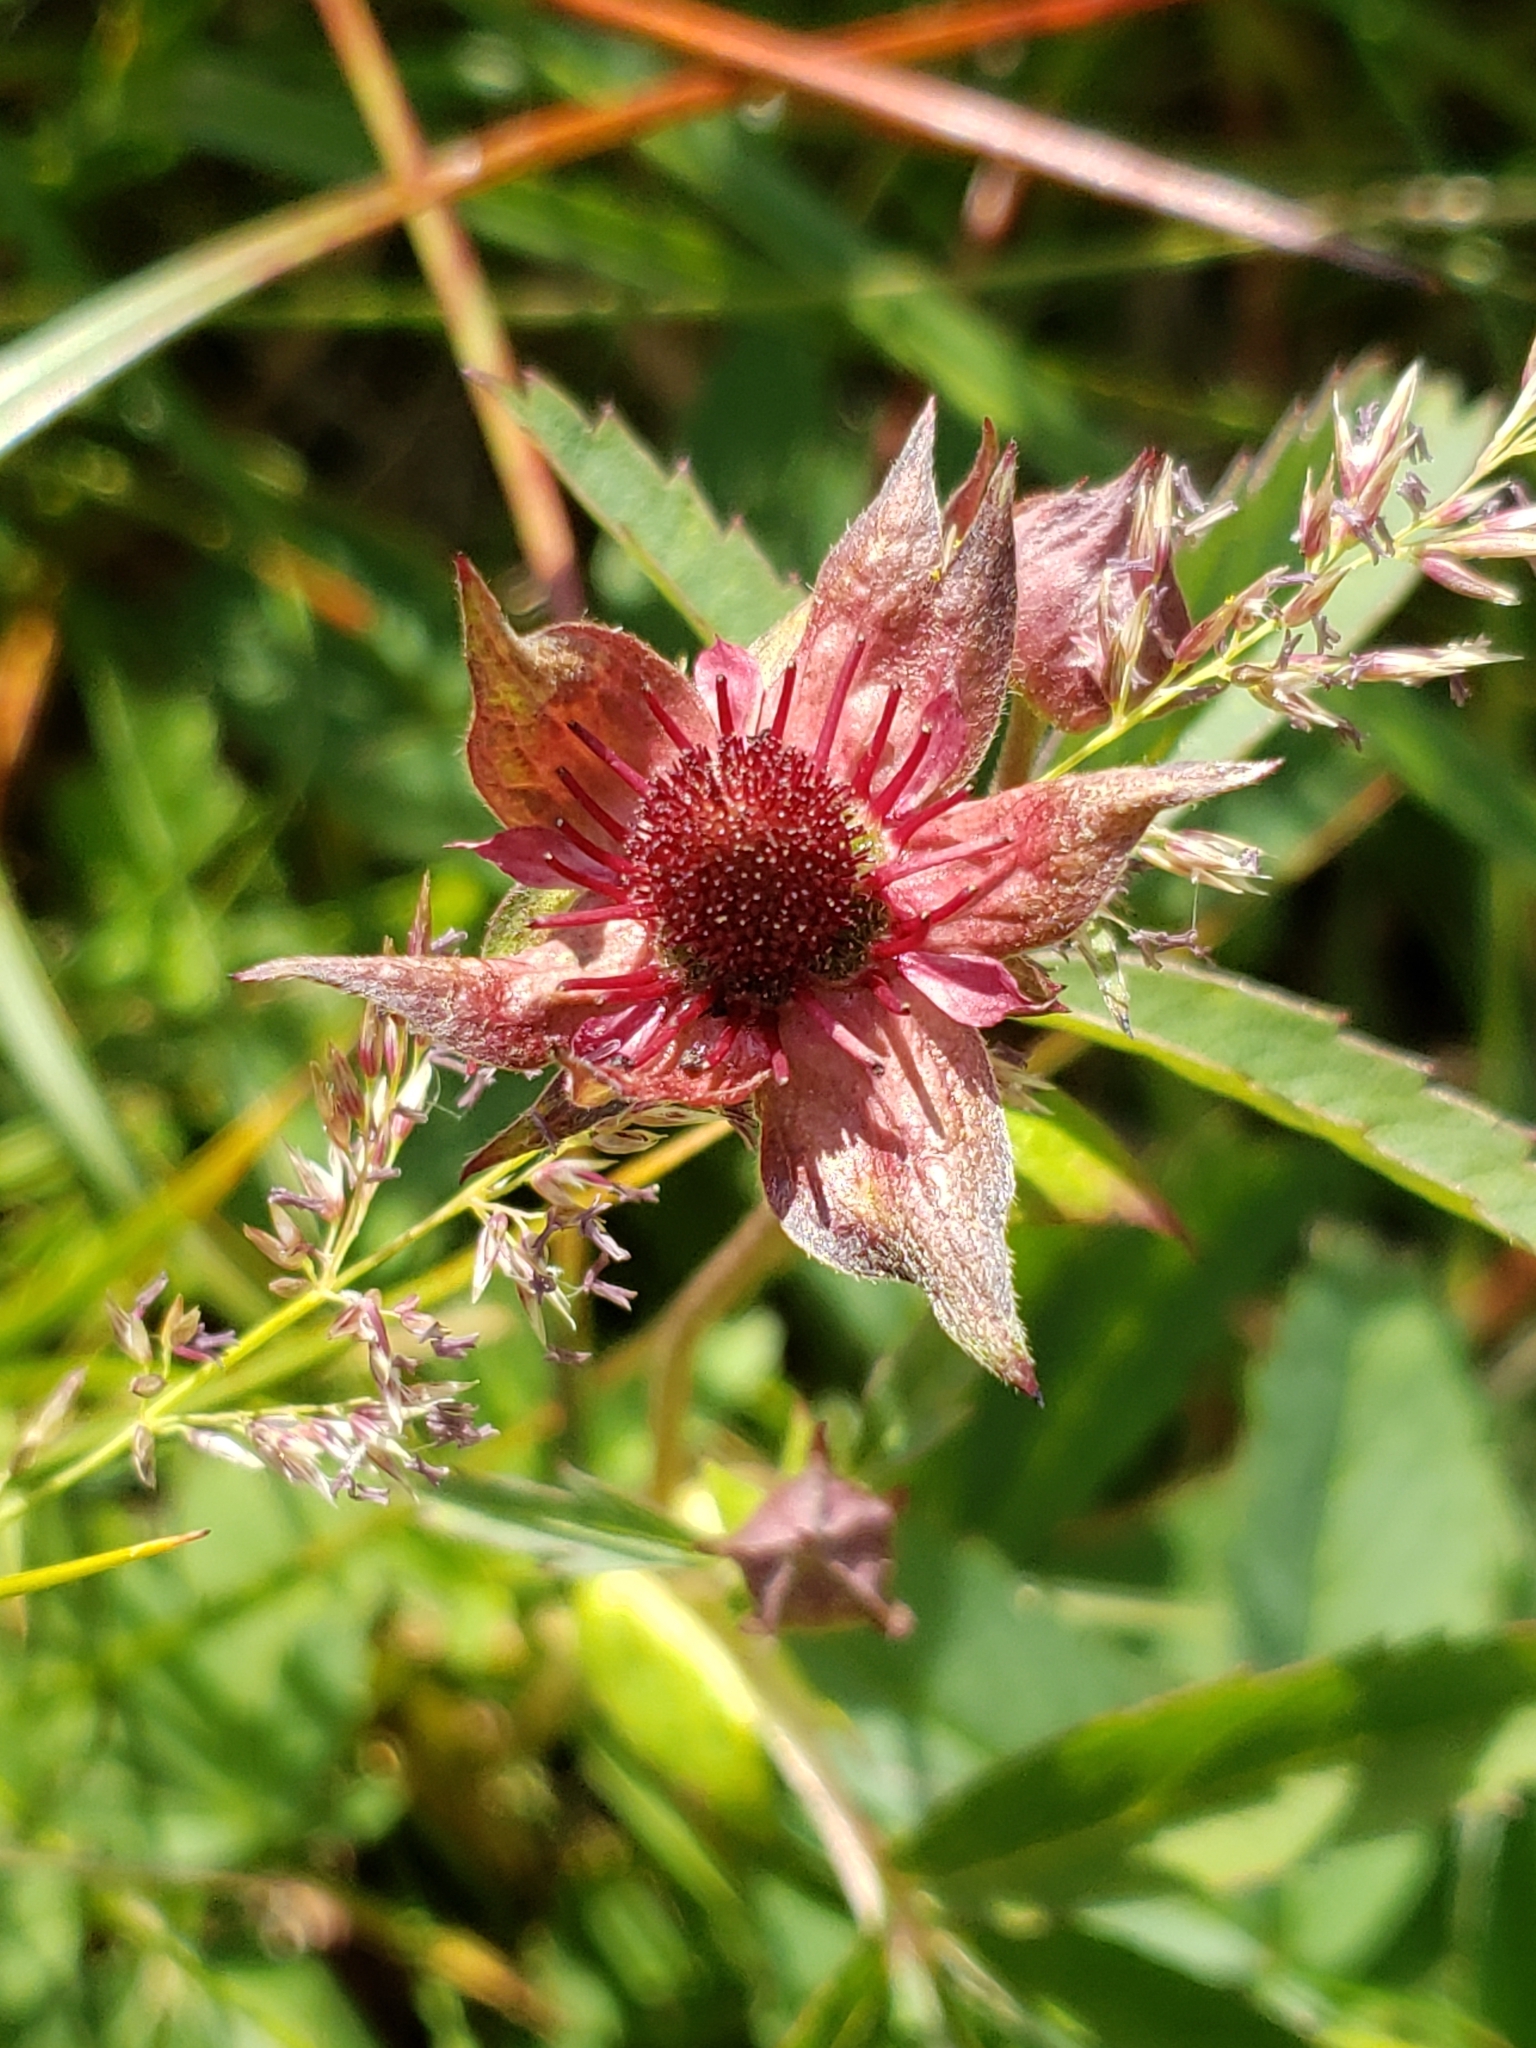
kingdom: Plantae
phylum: Tracheophyta
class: Magnoliopsida
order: Rosales
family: Rosaceae
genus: Comarum
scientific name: Comarum palustre
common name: Marsh cinquefoil
